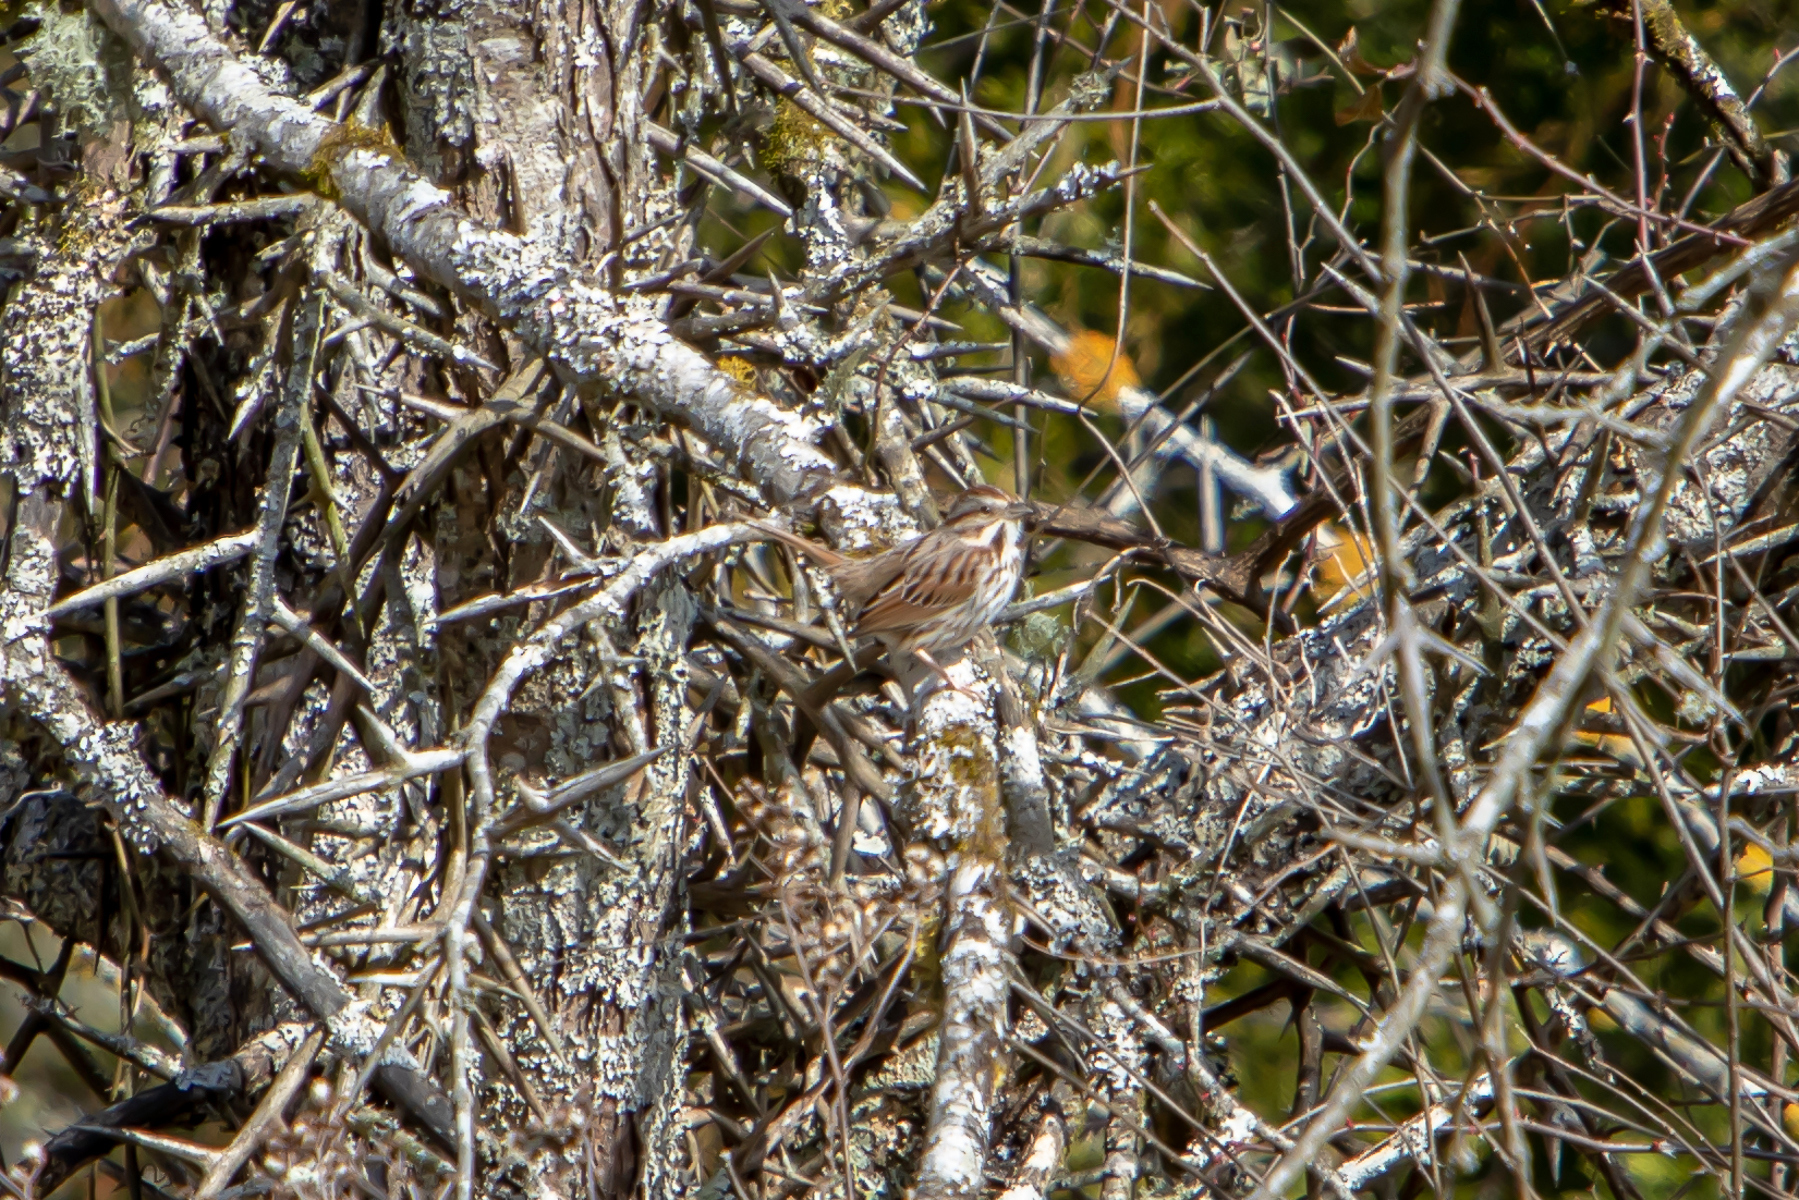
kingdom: Animalia
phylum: Chordata
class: Aves
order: Passeriformes
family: Passerellidae
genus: Melospiza
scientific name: Melospiza melodia
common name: Song sparrow
